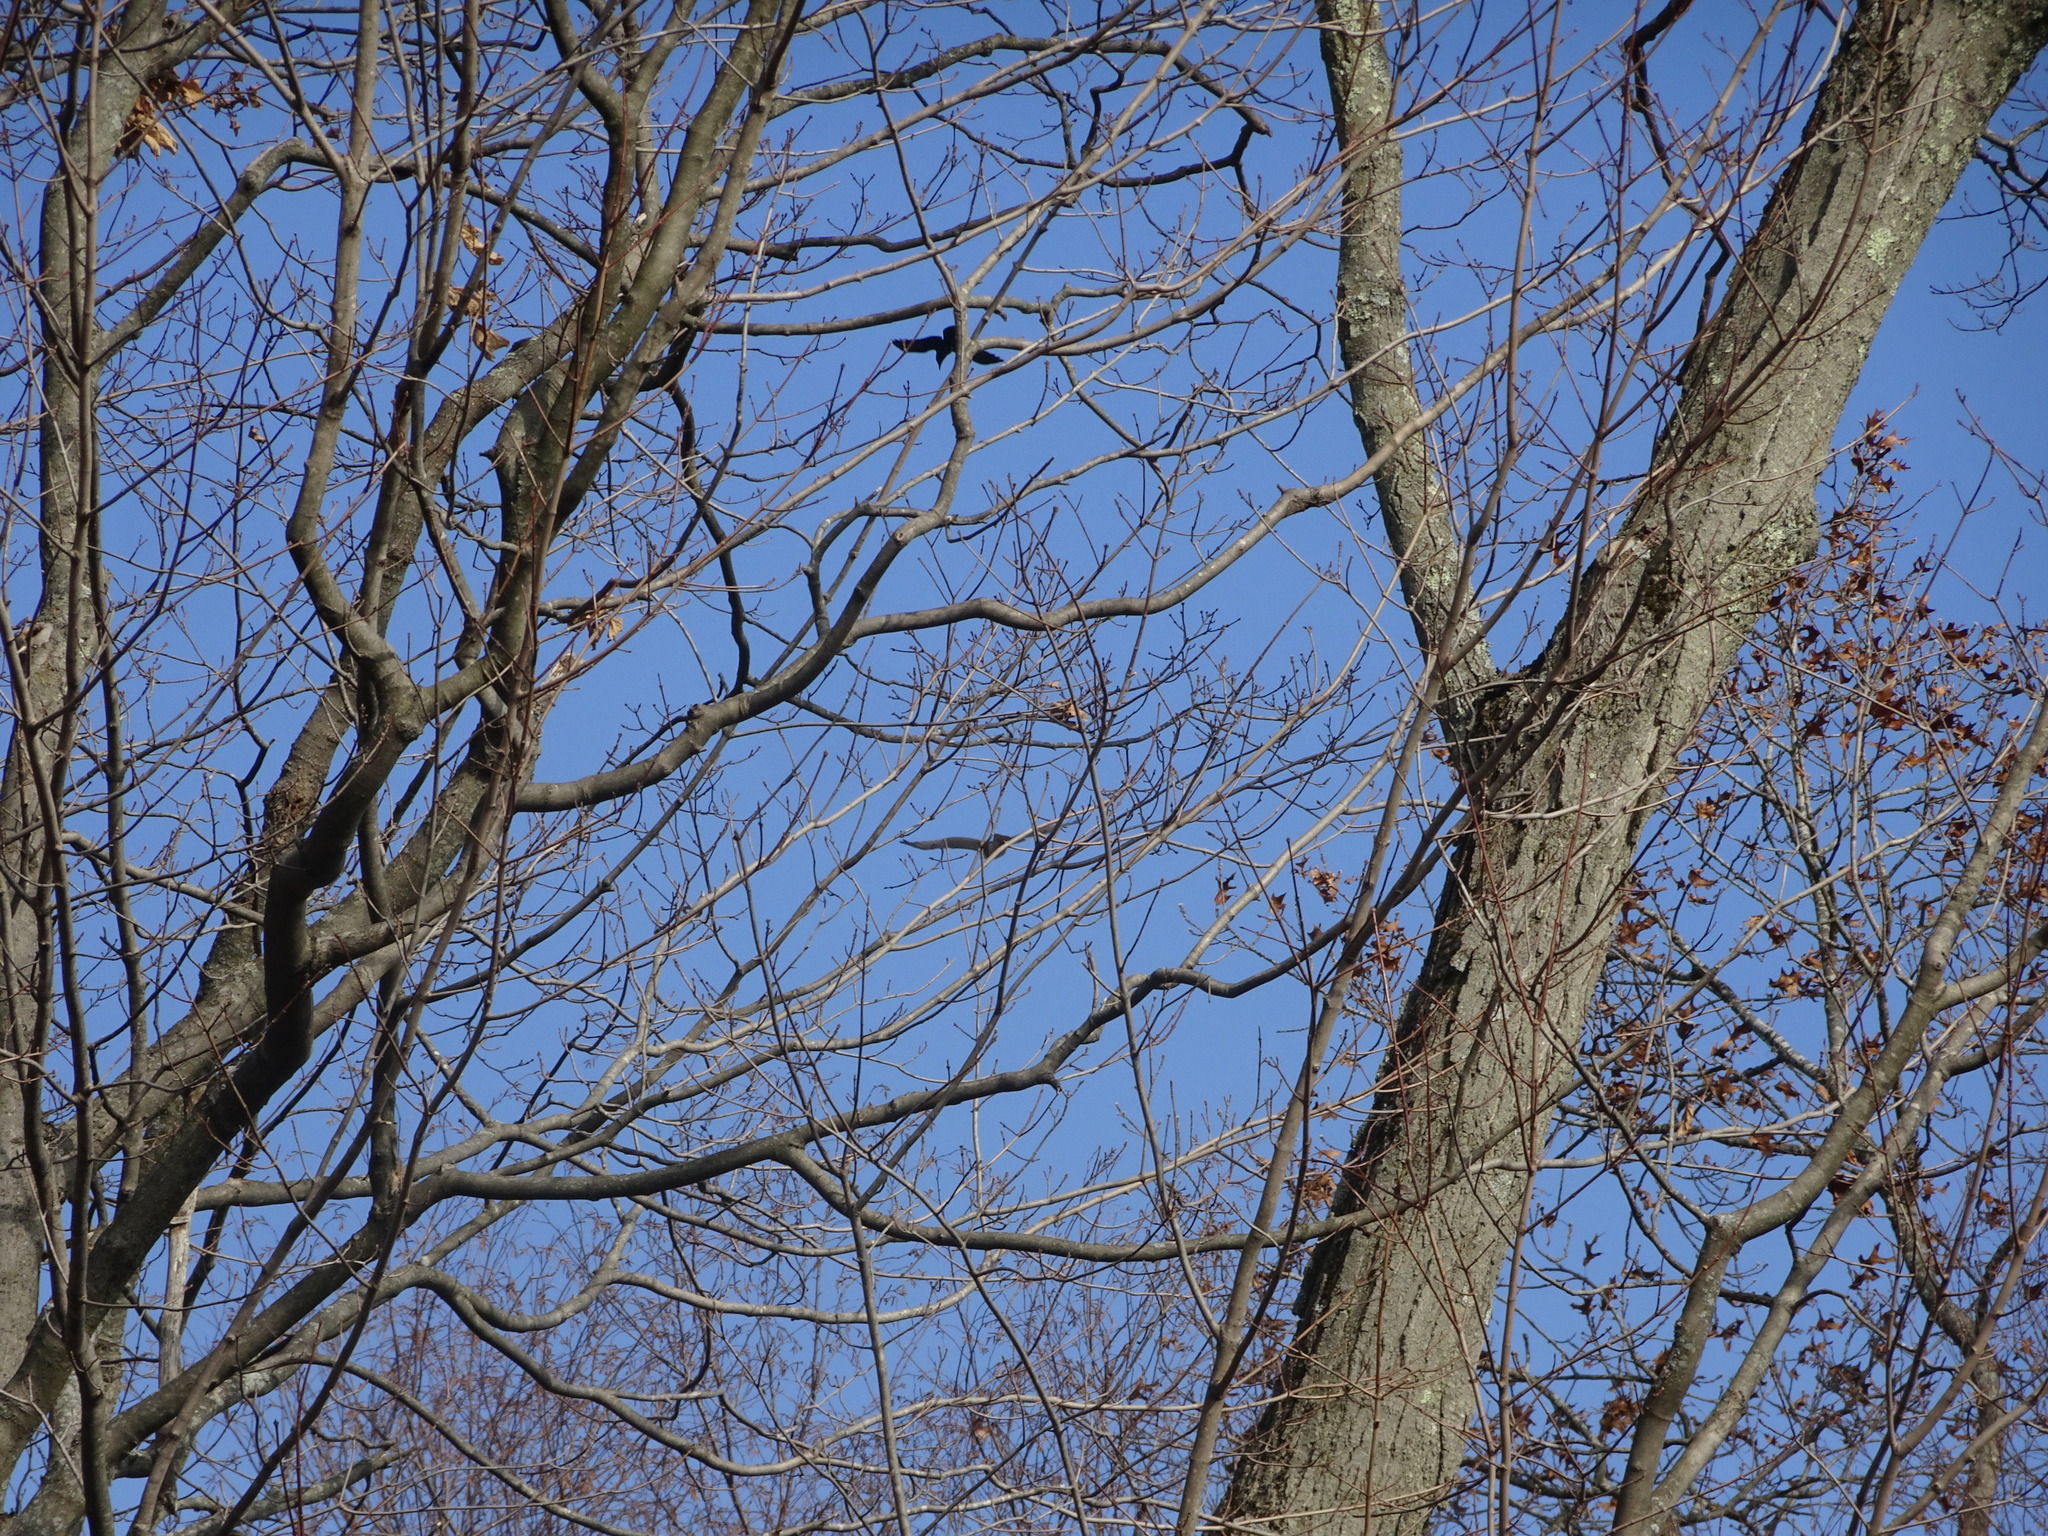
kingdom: Animalia
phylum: Chordata
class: Aves
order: Passeriformes
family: Corvidae
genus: Corvus
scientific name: Corvus brachyrhynchos
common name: American crow
